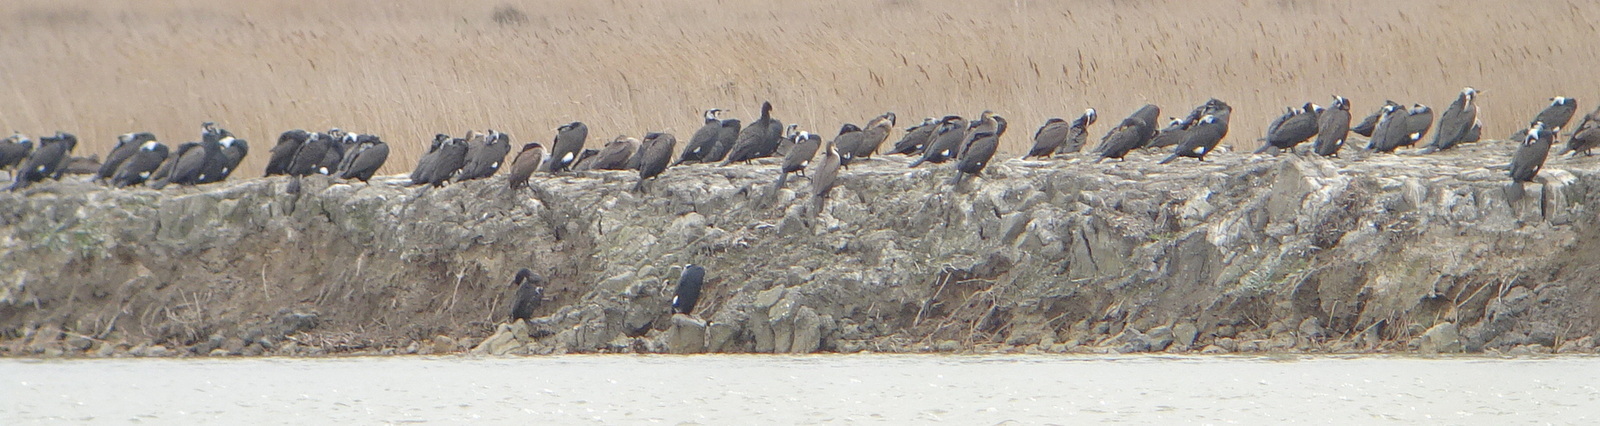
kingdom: Animalia
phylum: Chordata
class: Aves
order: Suliformes
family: Phalacrocoracidae
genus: Phalacrocorax
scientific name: Phalacrocorax carbo
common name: Great cormorant
